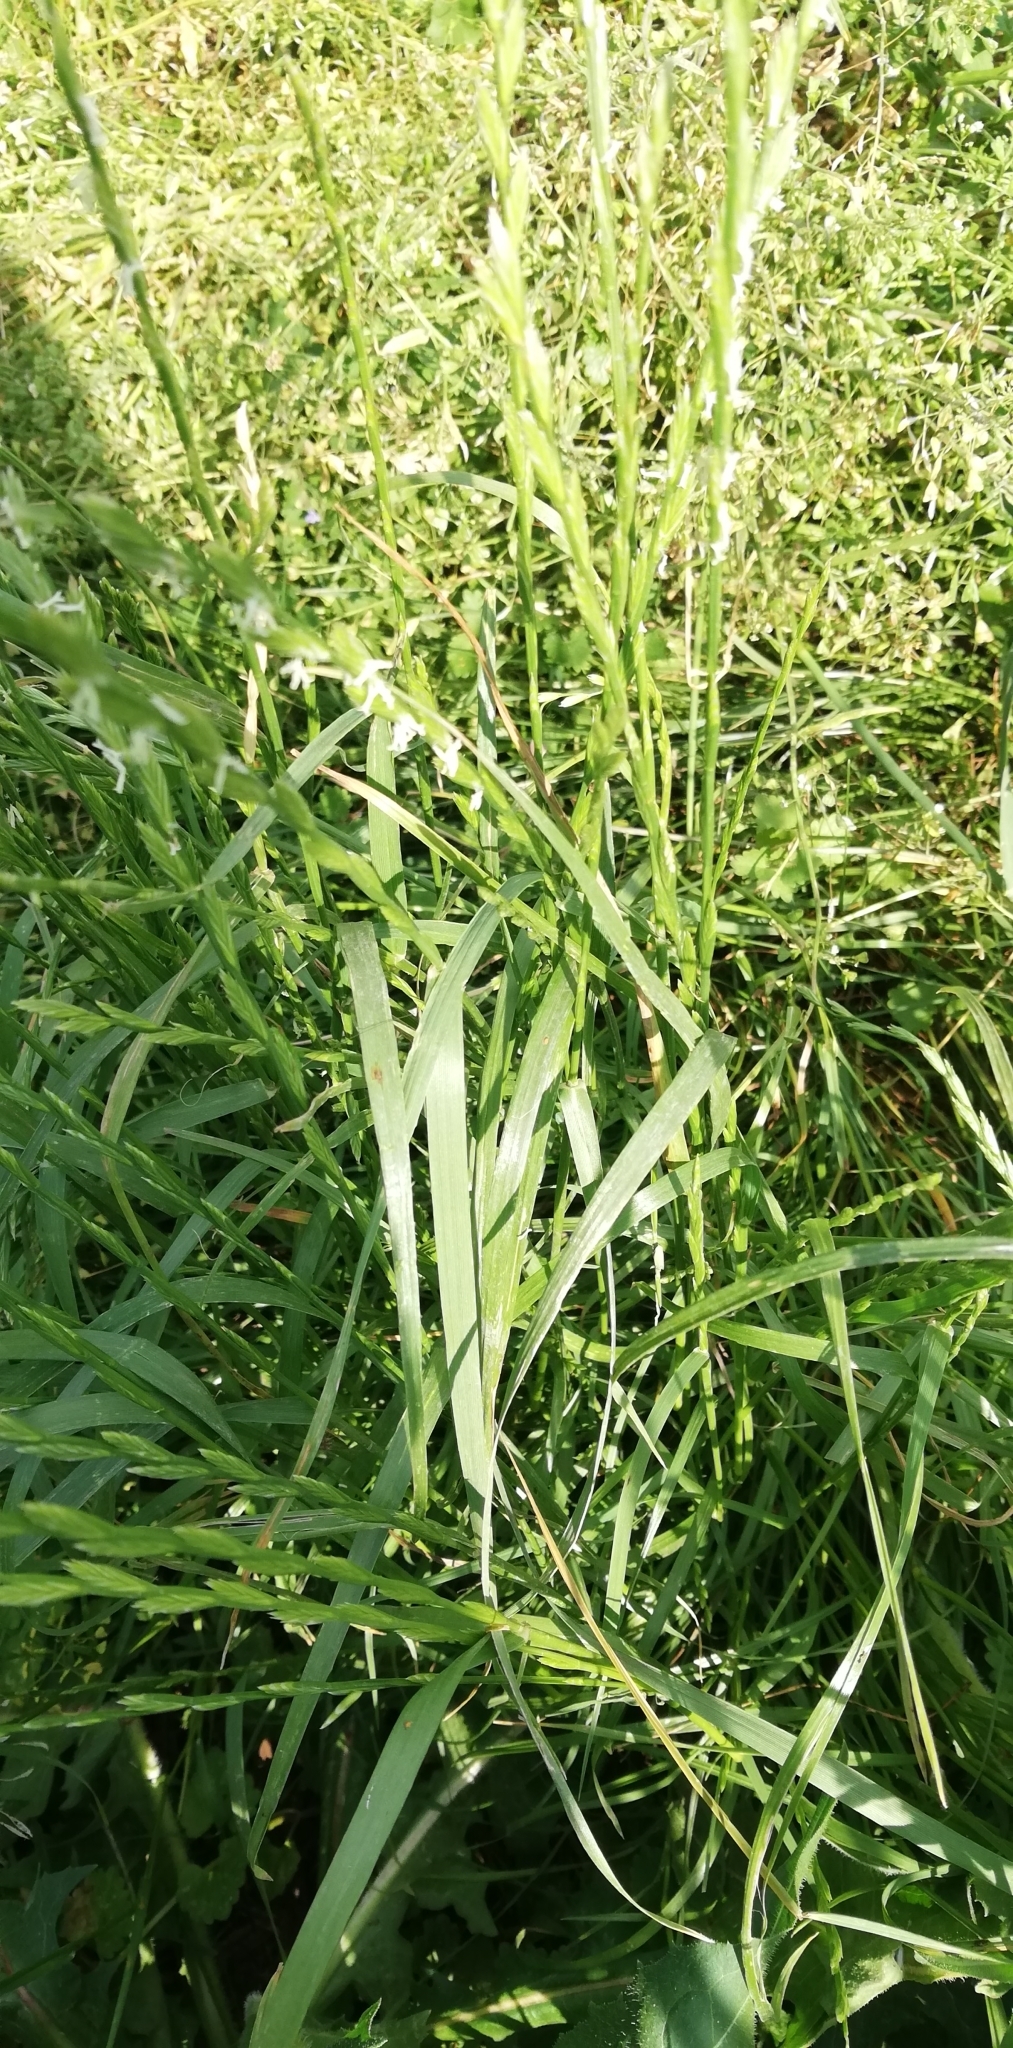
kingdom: Plantae
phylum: Tracheophyta
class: Liliopsida
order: Poales
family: Poaceae
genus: Lolium
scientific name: Lolium perenne
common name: Perennial ryegrass
